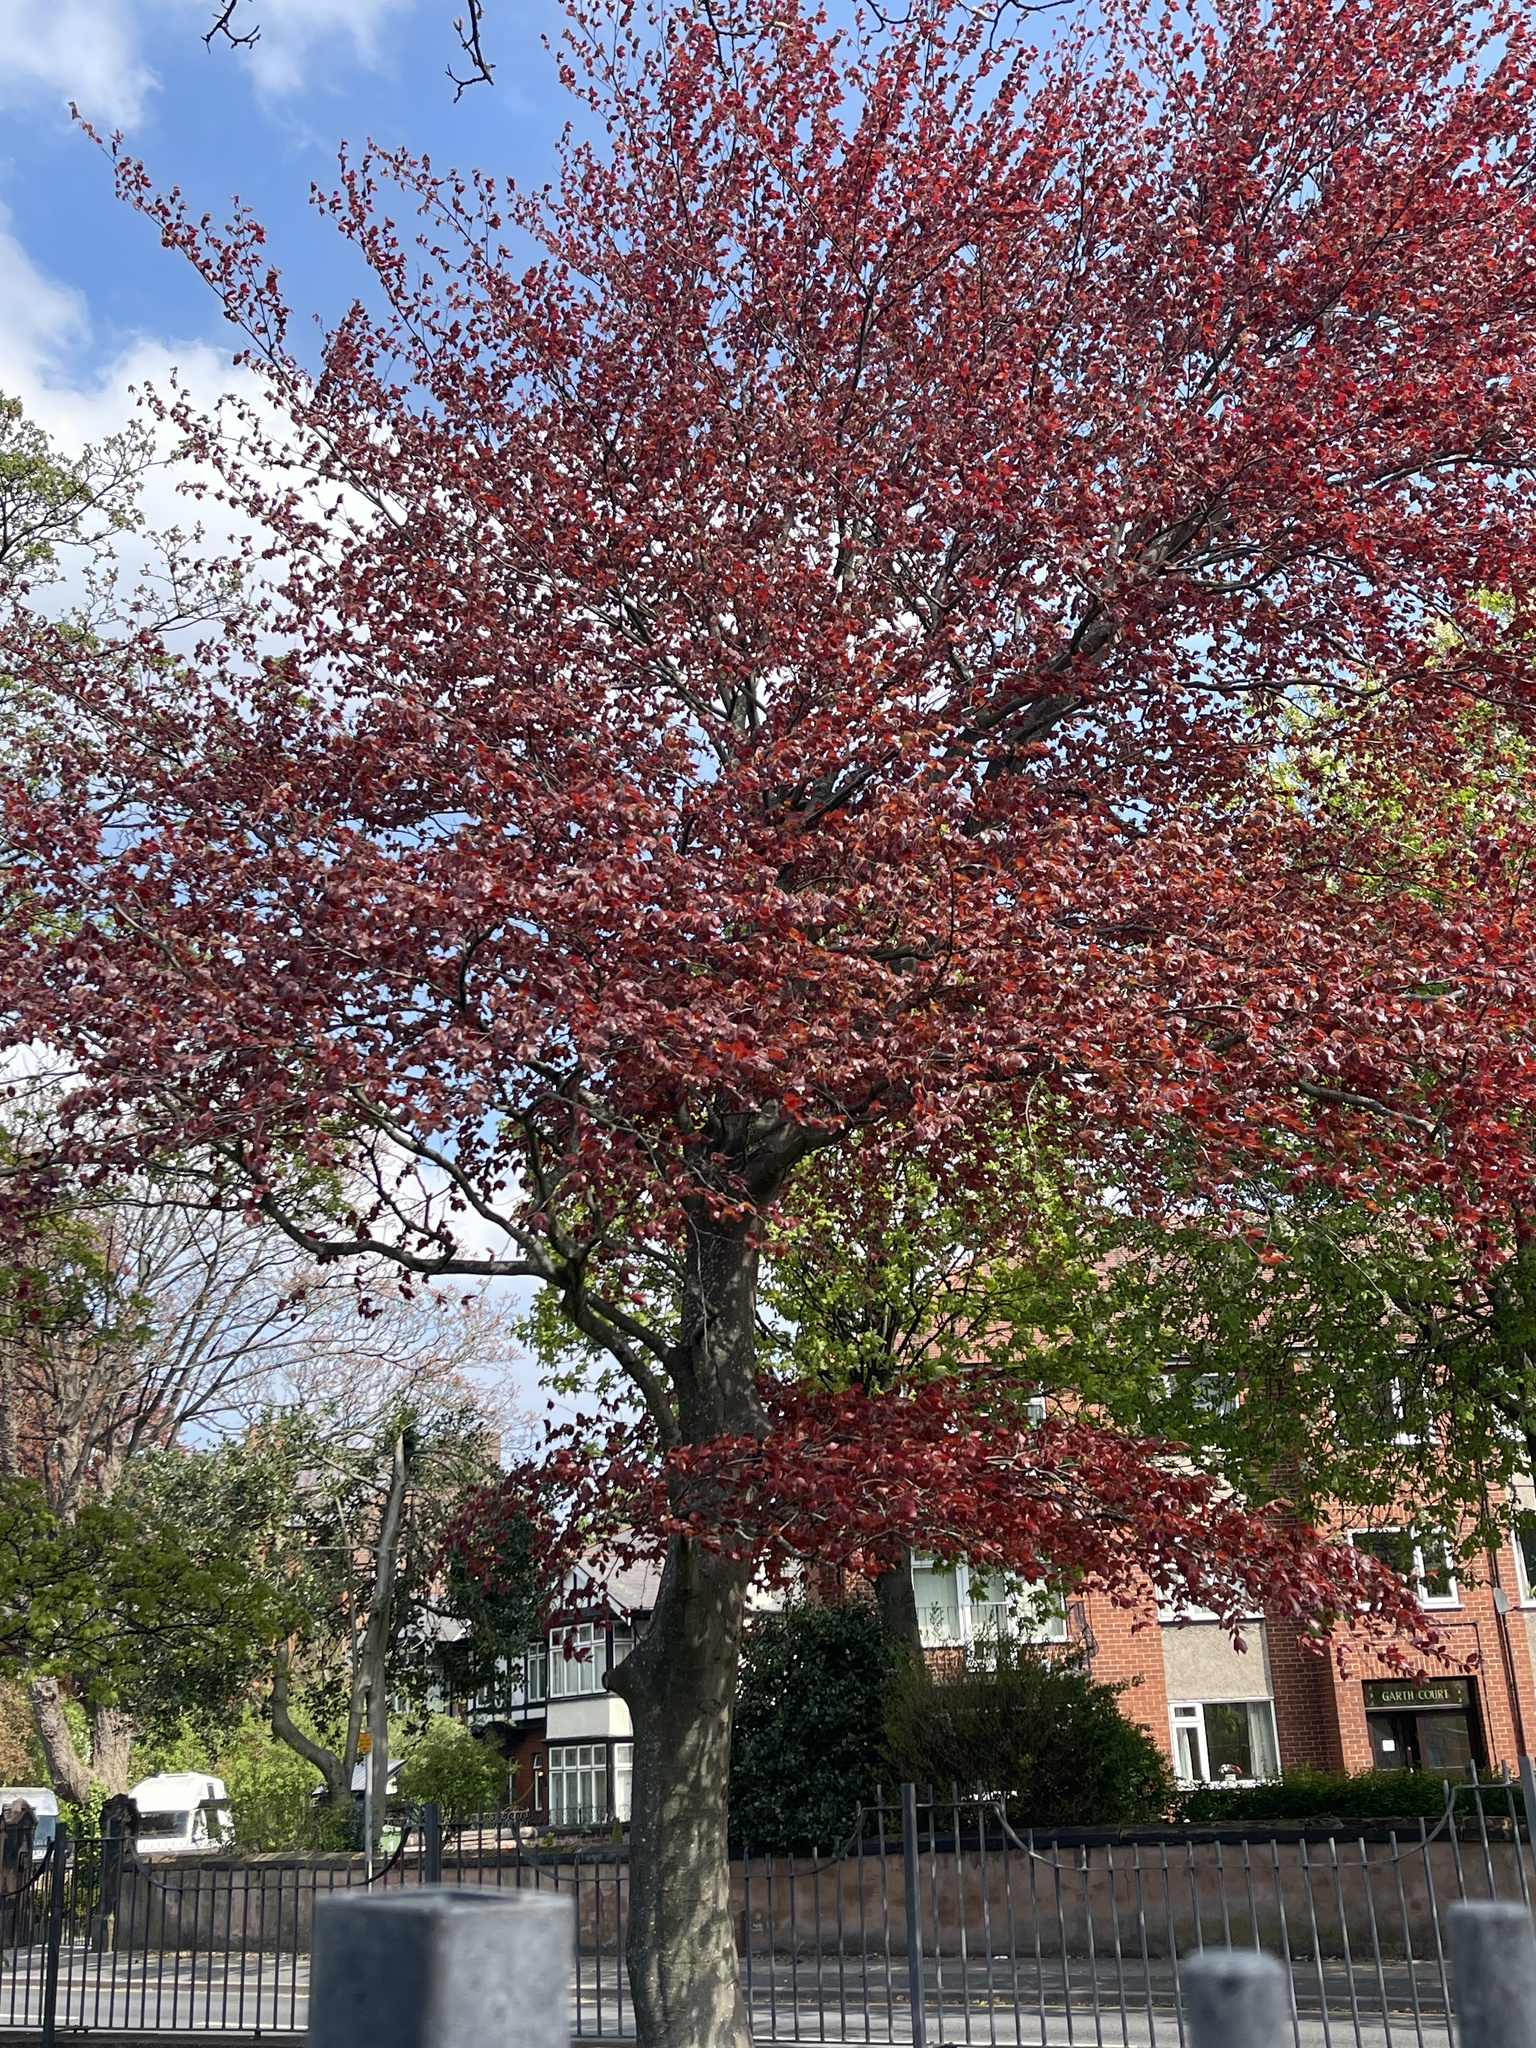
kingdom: Plantae
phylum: Tracheophyta
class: Magnoliopsida
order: Fagales
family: Fagaceae
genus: Fagus
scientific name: Fagus sylvatica
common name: Beech
